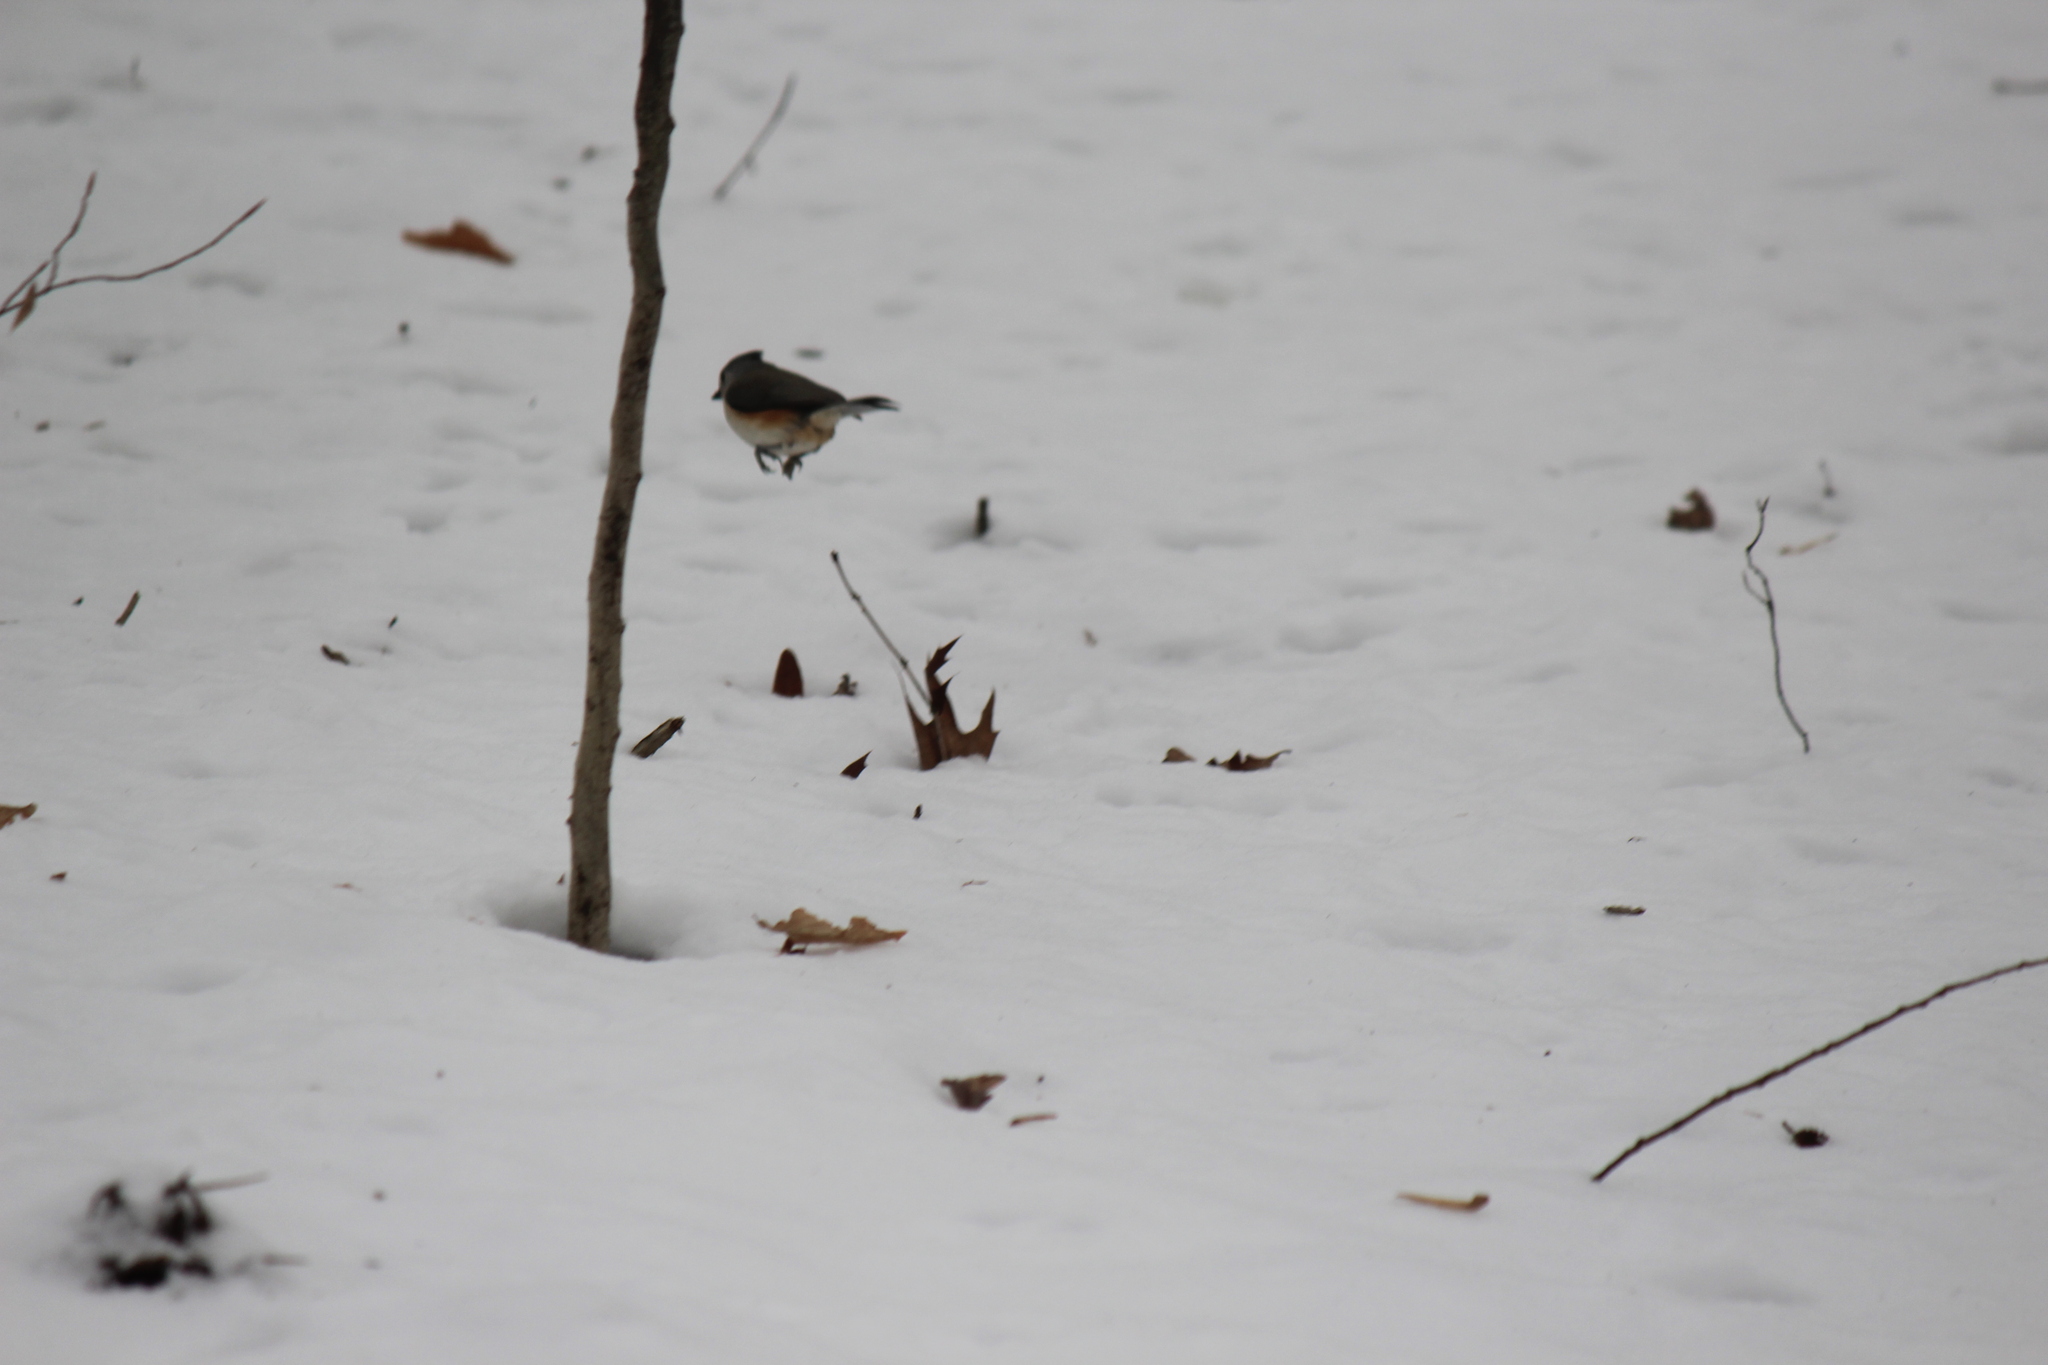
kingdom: Animalia
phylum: Chordata
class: Aves
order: Passeriformes
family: Paridae
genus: Baeolophus
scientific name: Baeolophus bicolor
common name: Tufted titmouse
